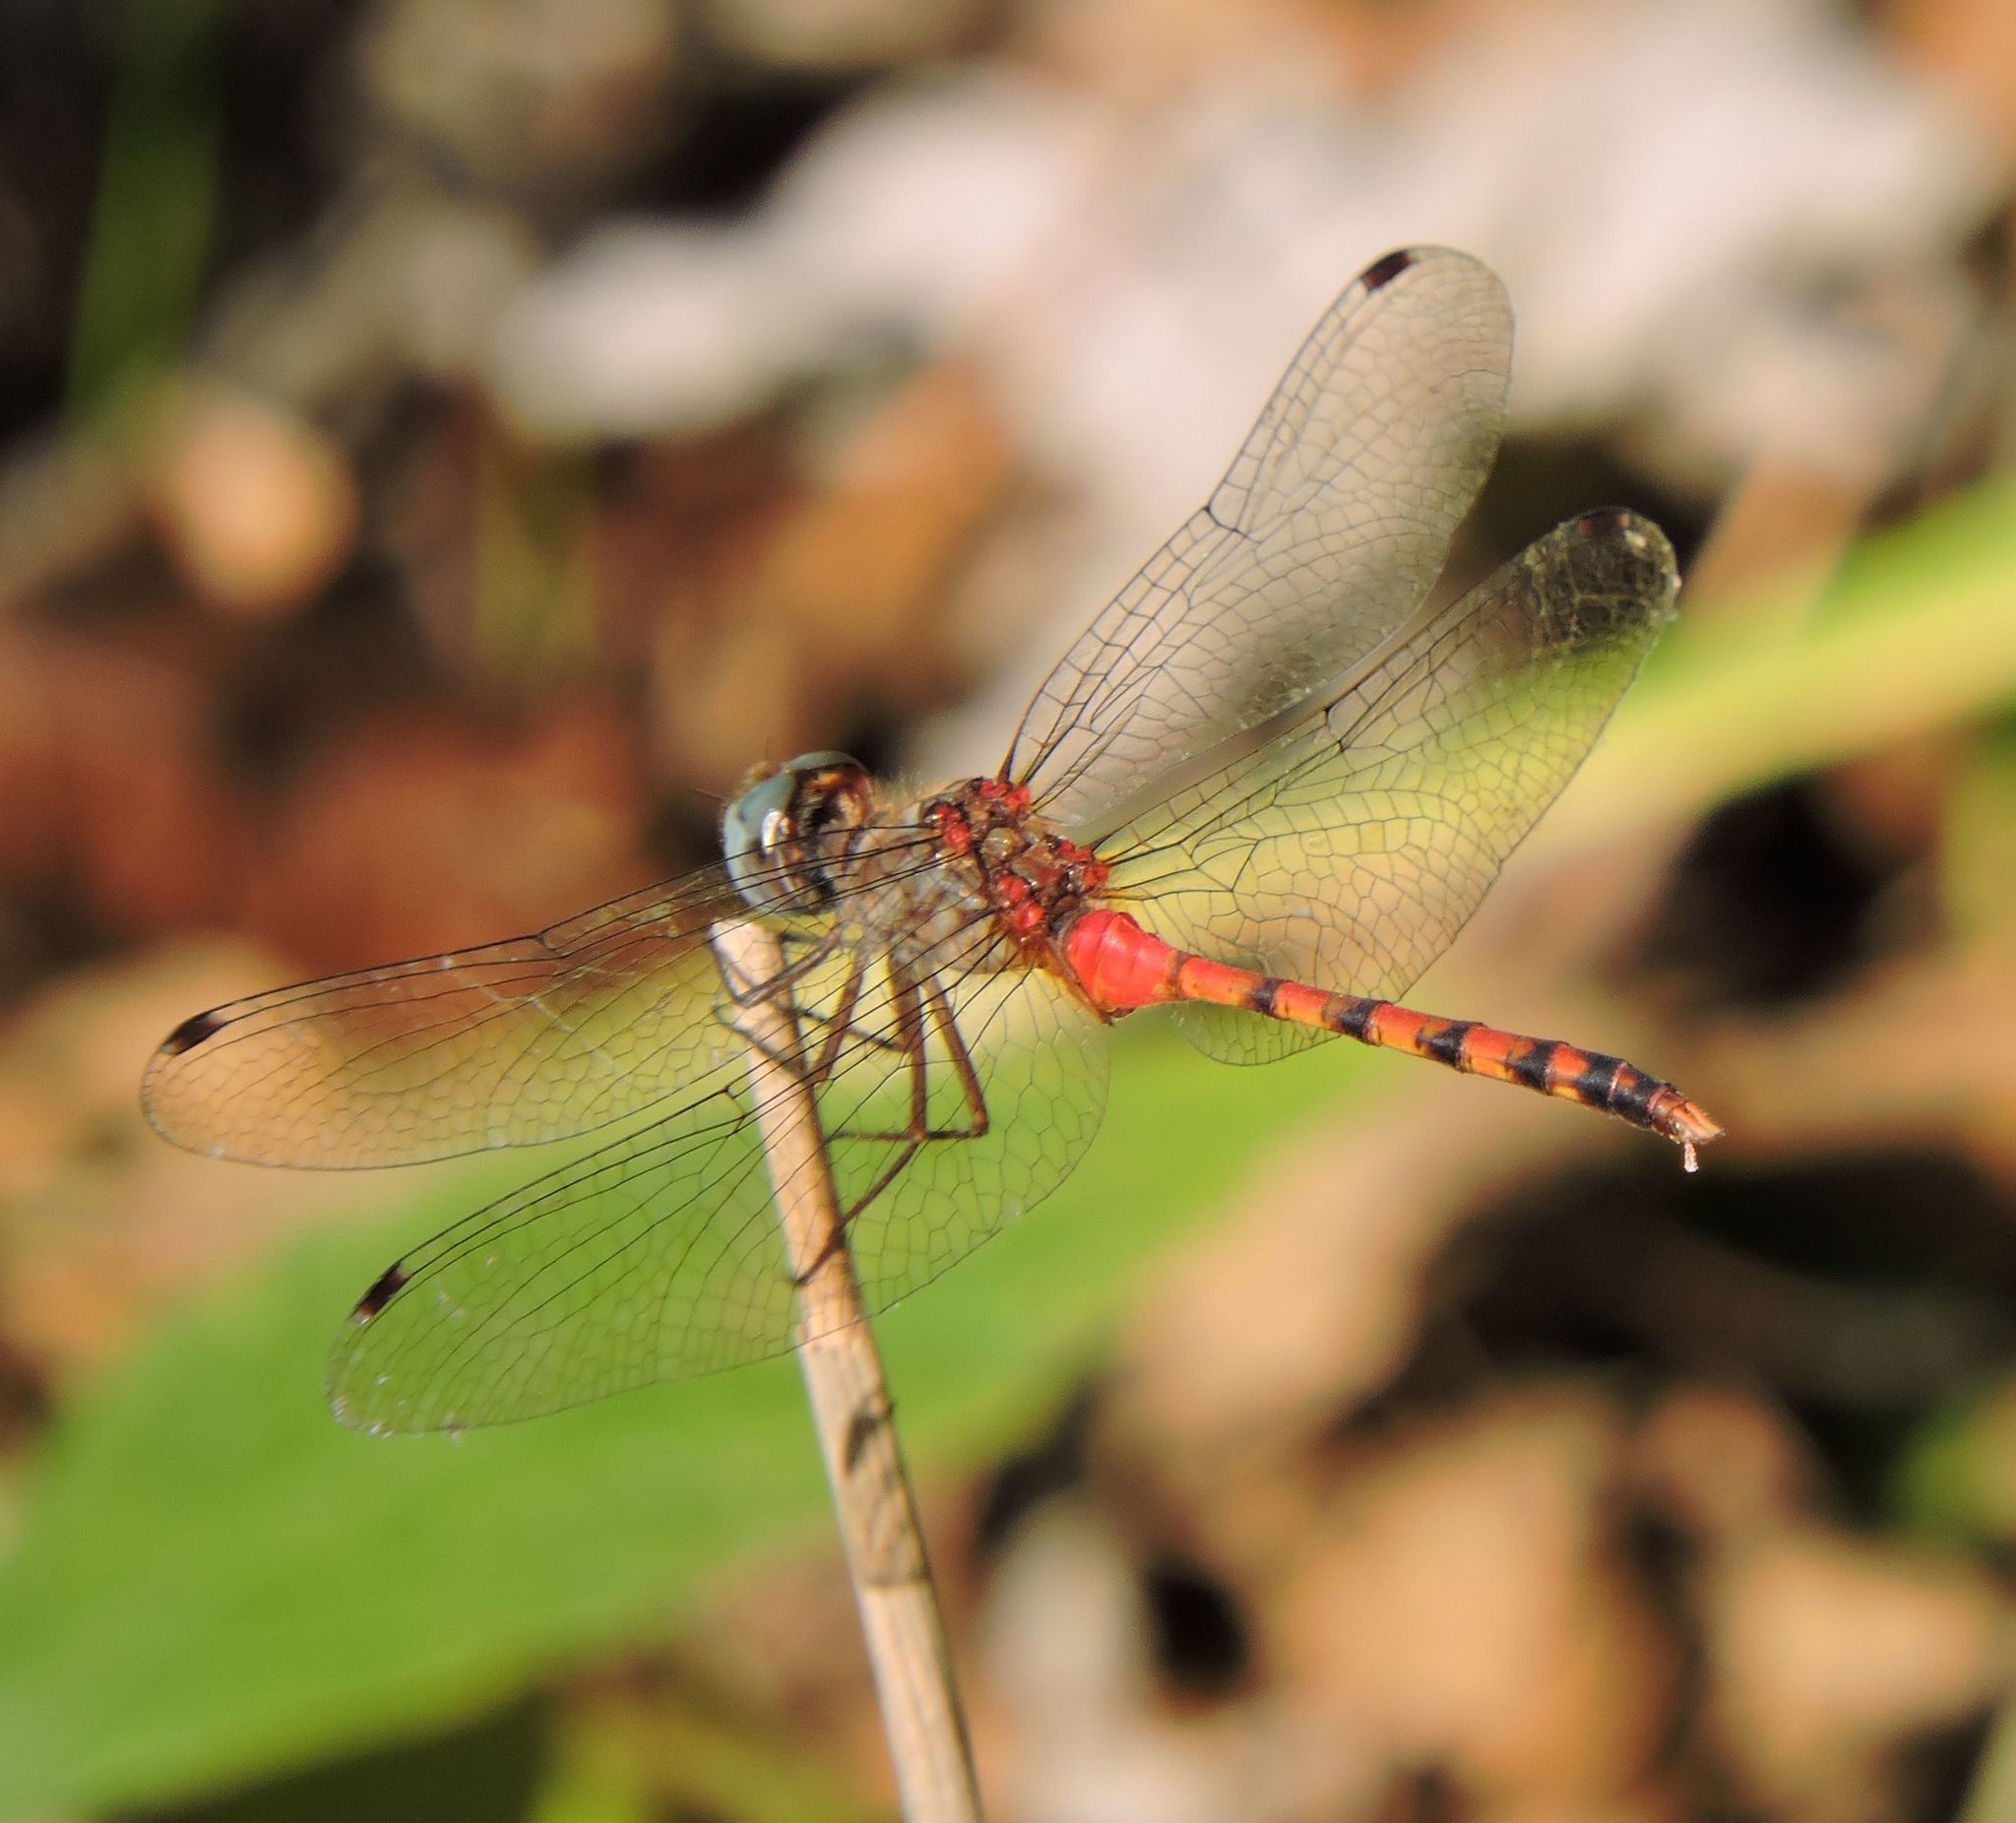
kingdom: Animalia
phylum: Arthropoda
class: Insecta
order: Odonata
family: Libellulidae
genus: Sympetrum
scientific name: Sympetrum ambiguum
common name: Blue-faced meadowhawk
